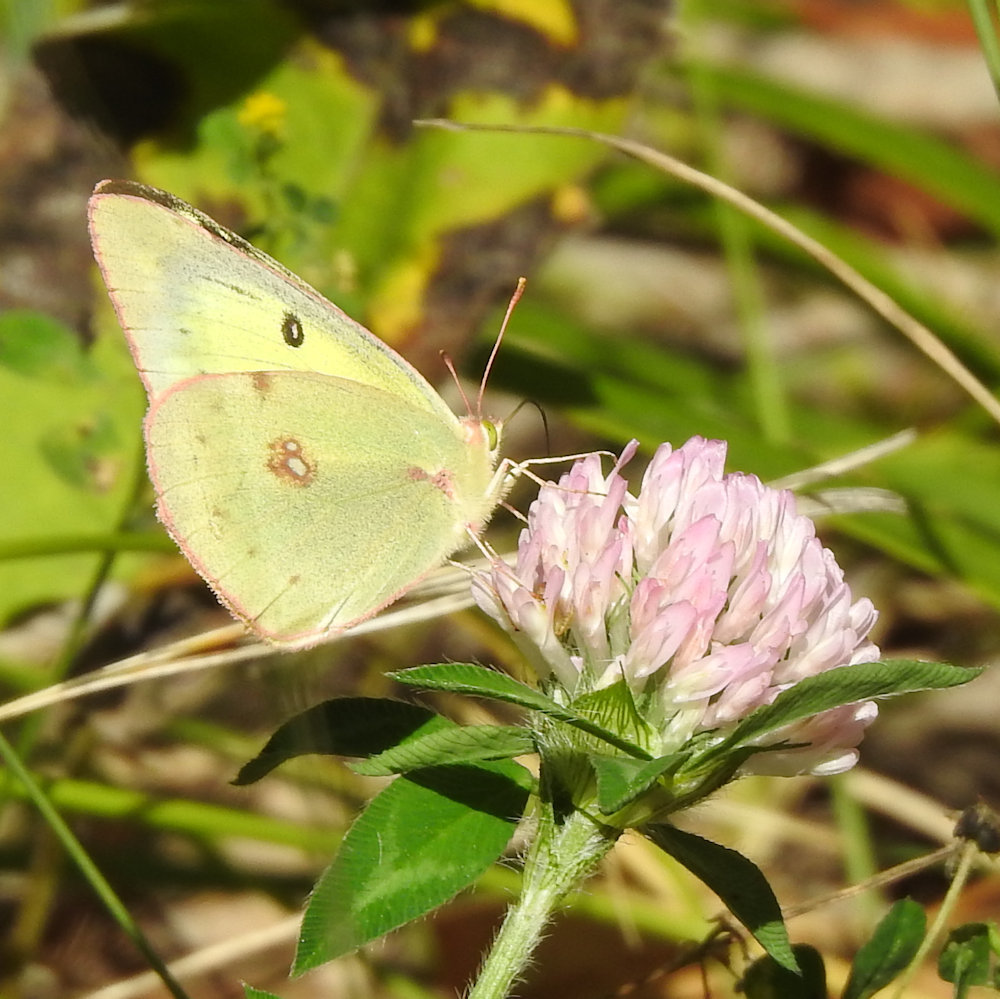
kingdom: Animalia
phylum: Arthropoda
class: Insecta
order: Lepidoptera
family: Pieridae
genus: Colias
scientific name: Colias philodice
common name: Clouded sulphur
